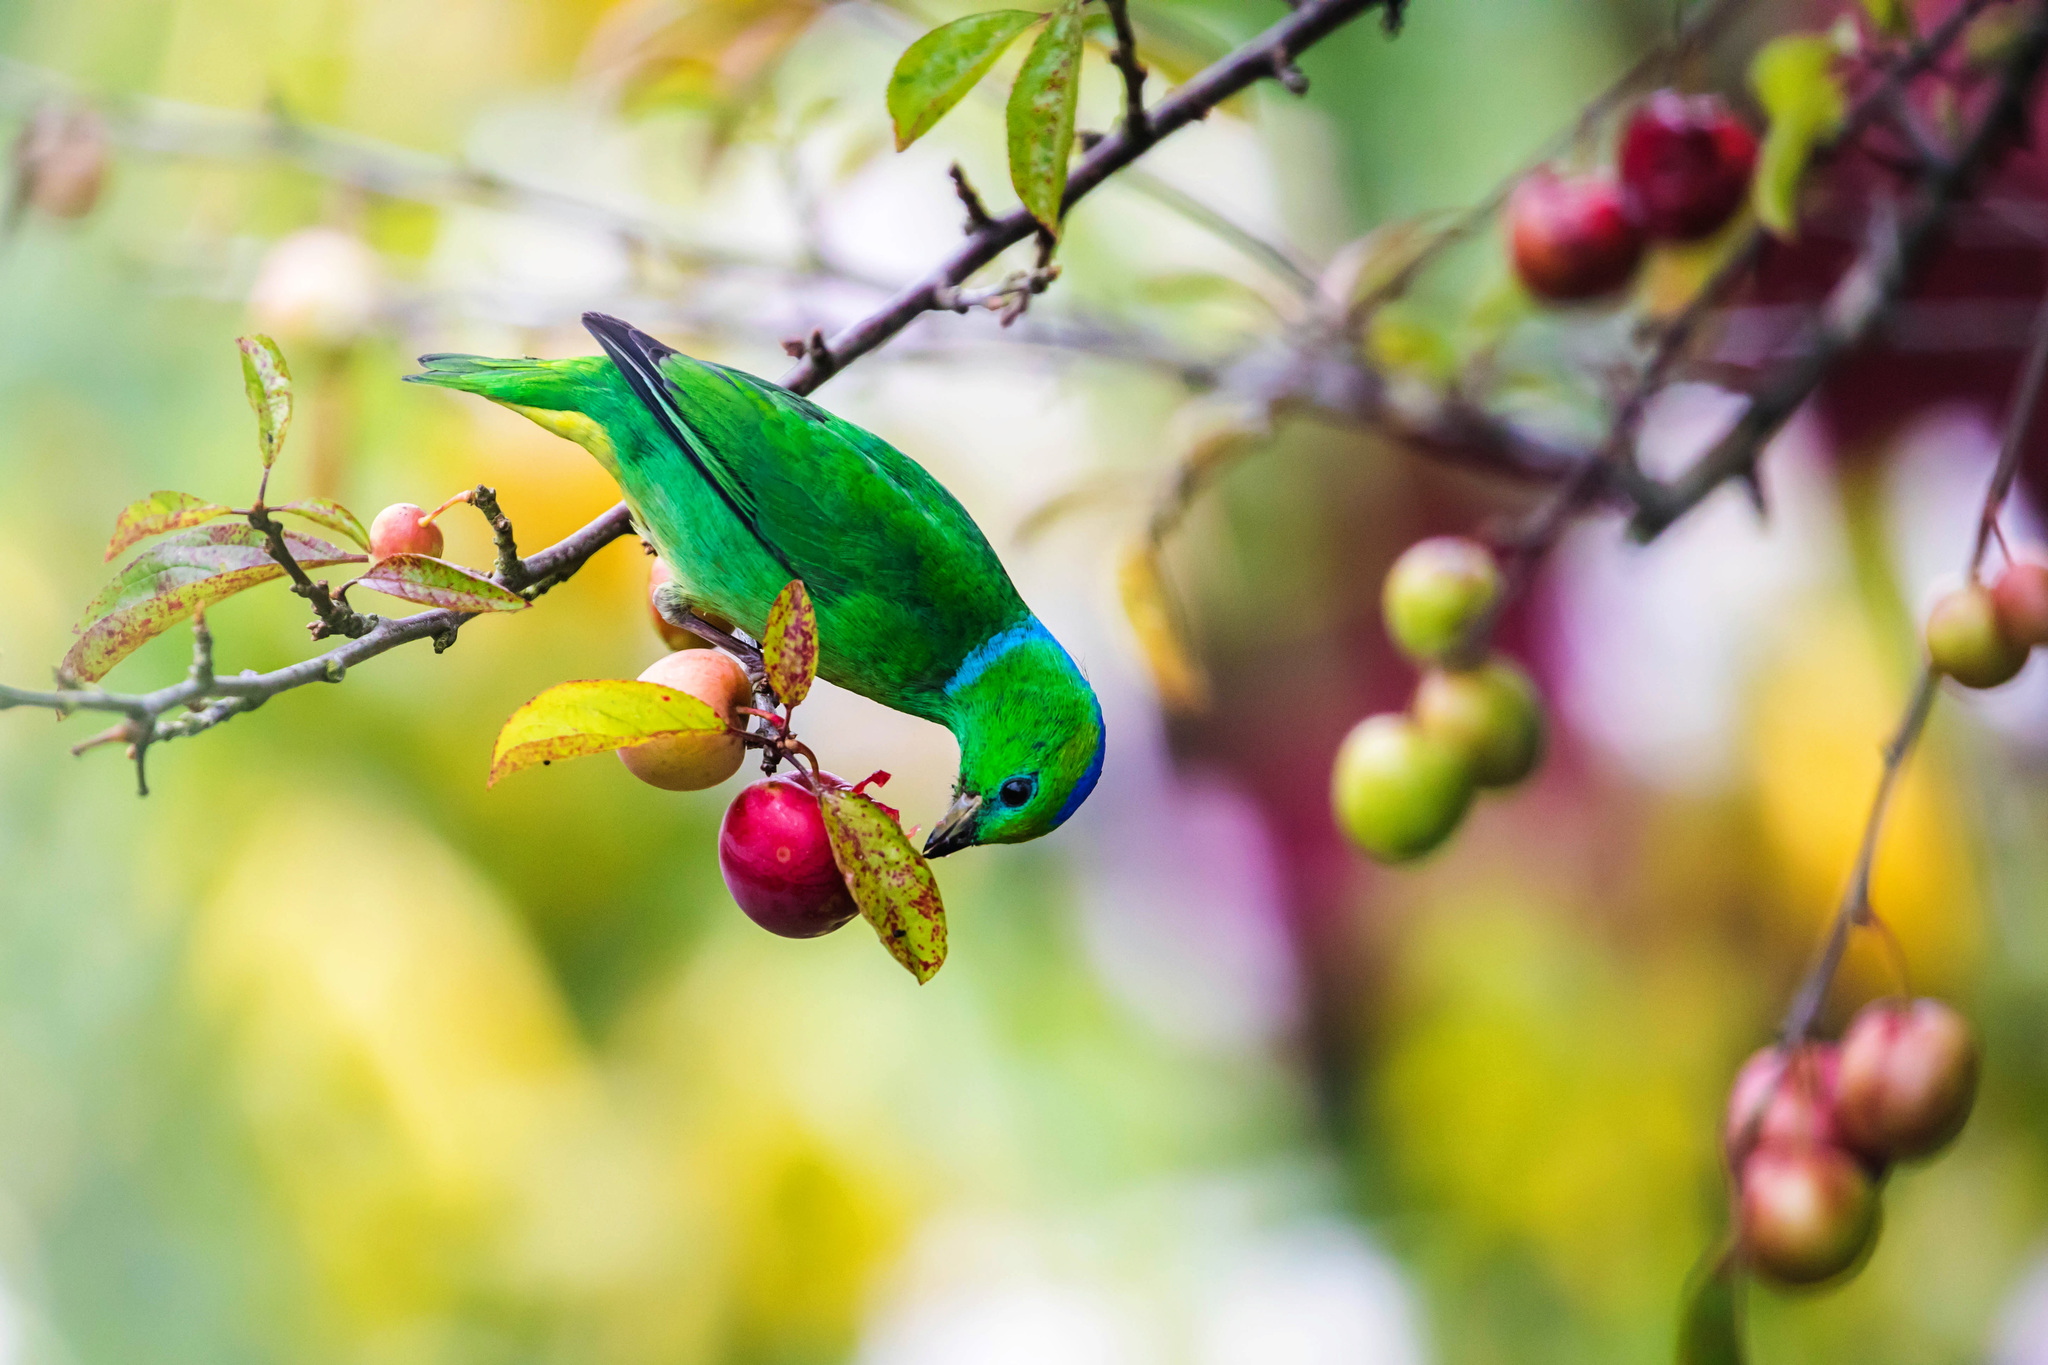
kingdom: Animalia
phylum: Chordata
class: Aves
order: Passeriformes
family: Fringillidae
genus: Chlorophonia
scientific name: Chlorophonia callophrys
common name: Golden-browed chlorophonia
